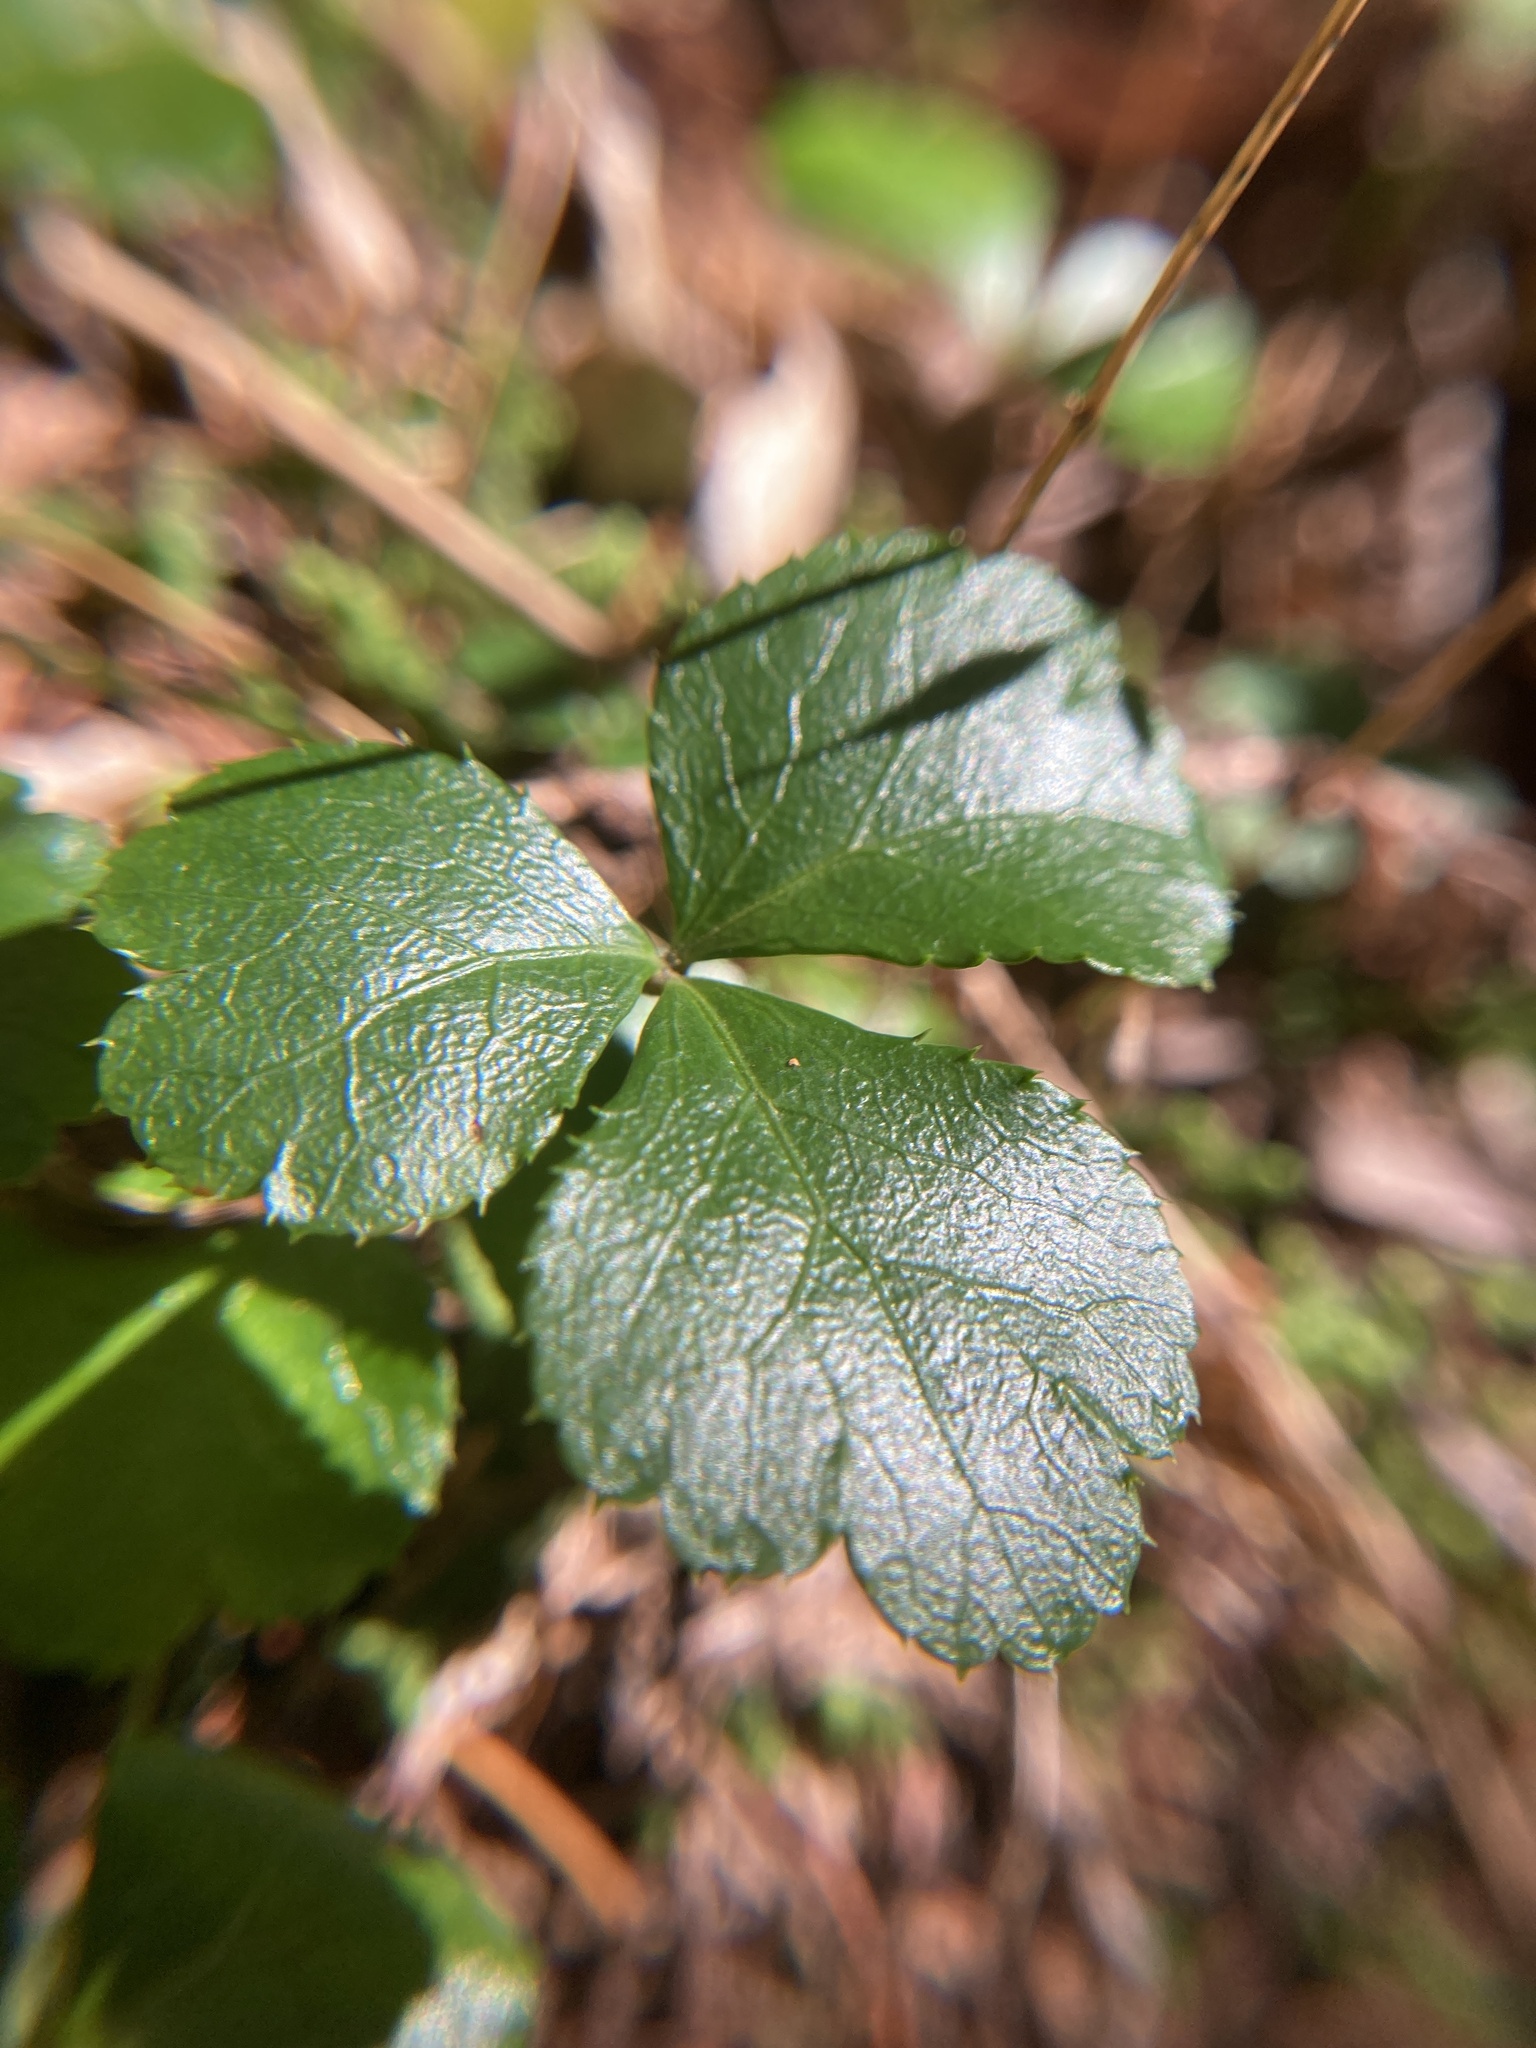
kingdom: Plantae
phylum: Tracheophyta
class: Magnoliopsida
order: Ranunculales
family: Ranunculaceae
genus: Coptis
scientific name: Coptis trifolia
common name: Canker-root
